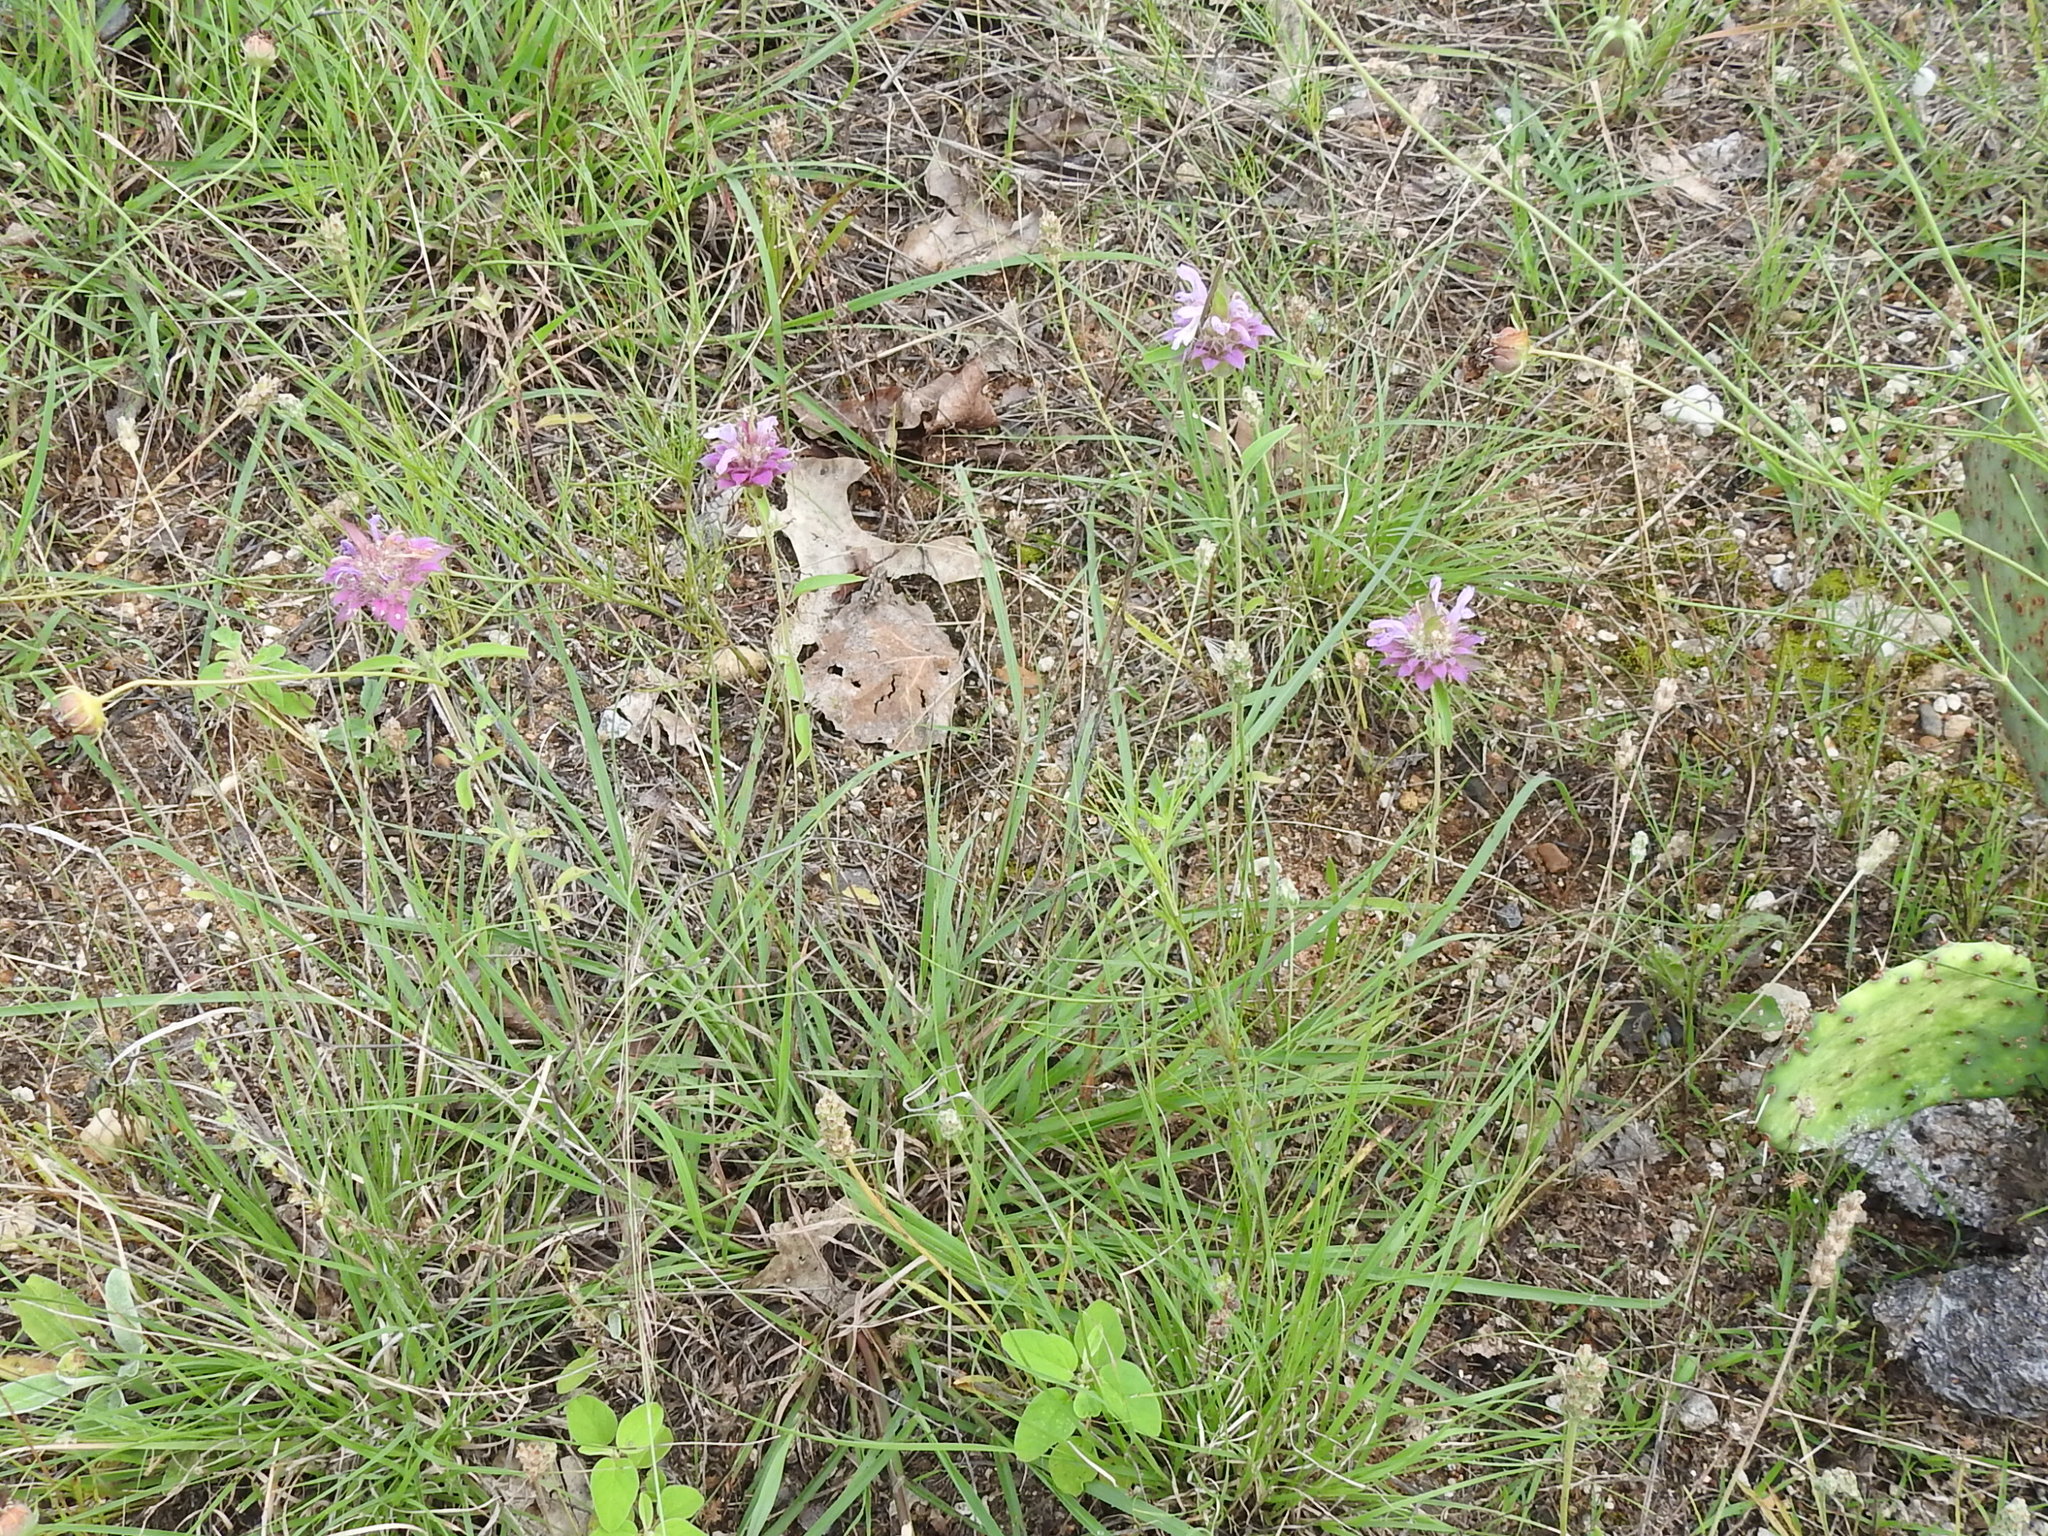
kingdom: Plantae
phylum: Tracheophyta
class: Magnoliopsida
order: Lamiales
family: Lamiaceae
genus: Monarda
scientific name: Monarda citriodora
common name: Lemon beebalm
